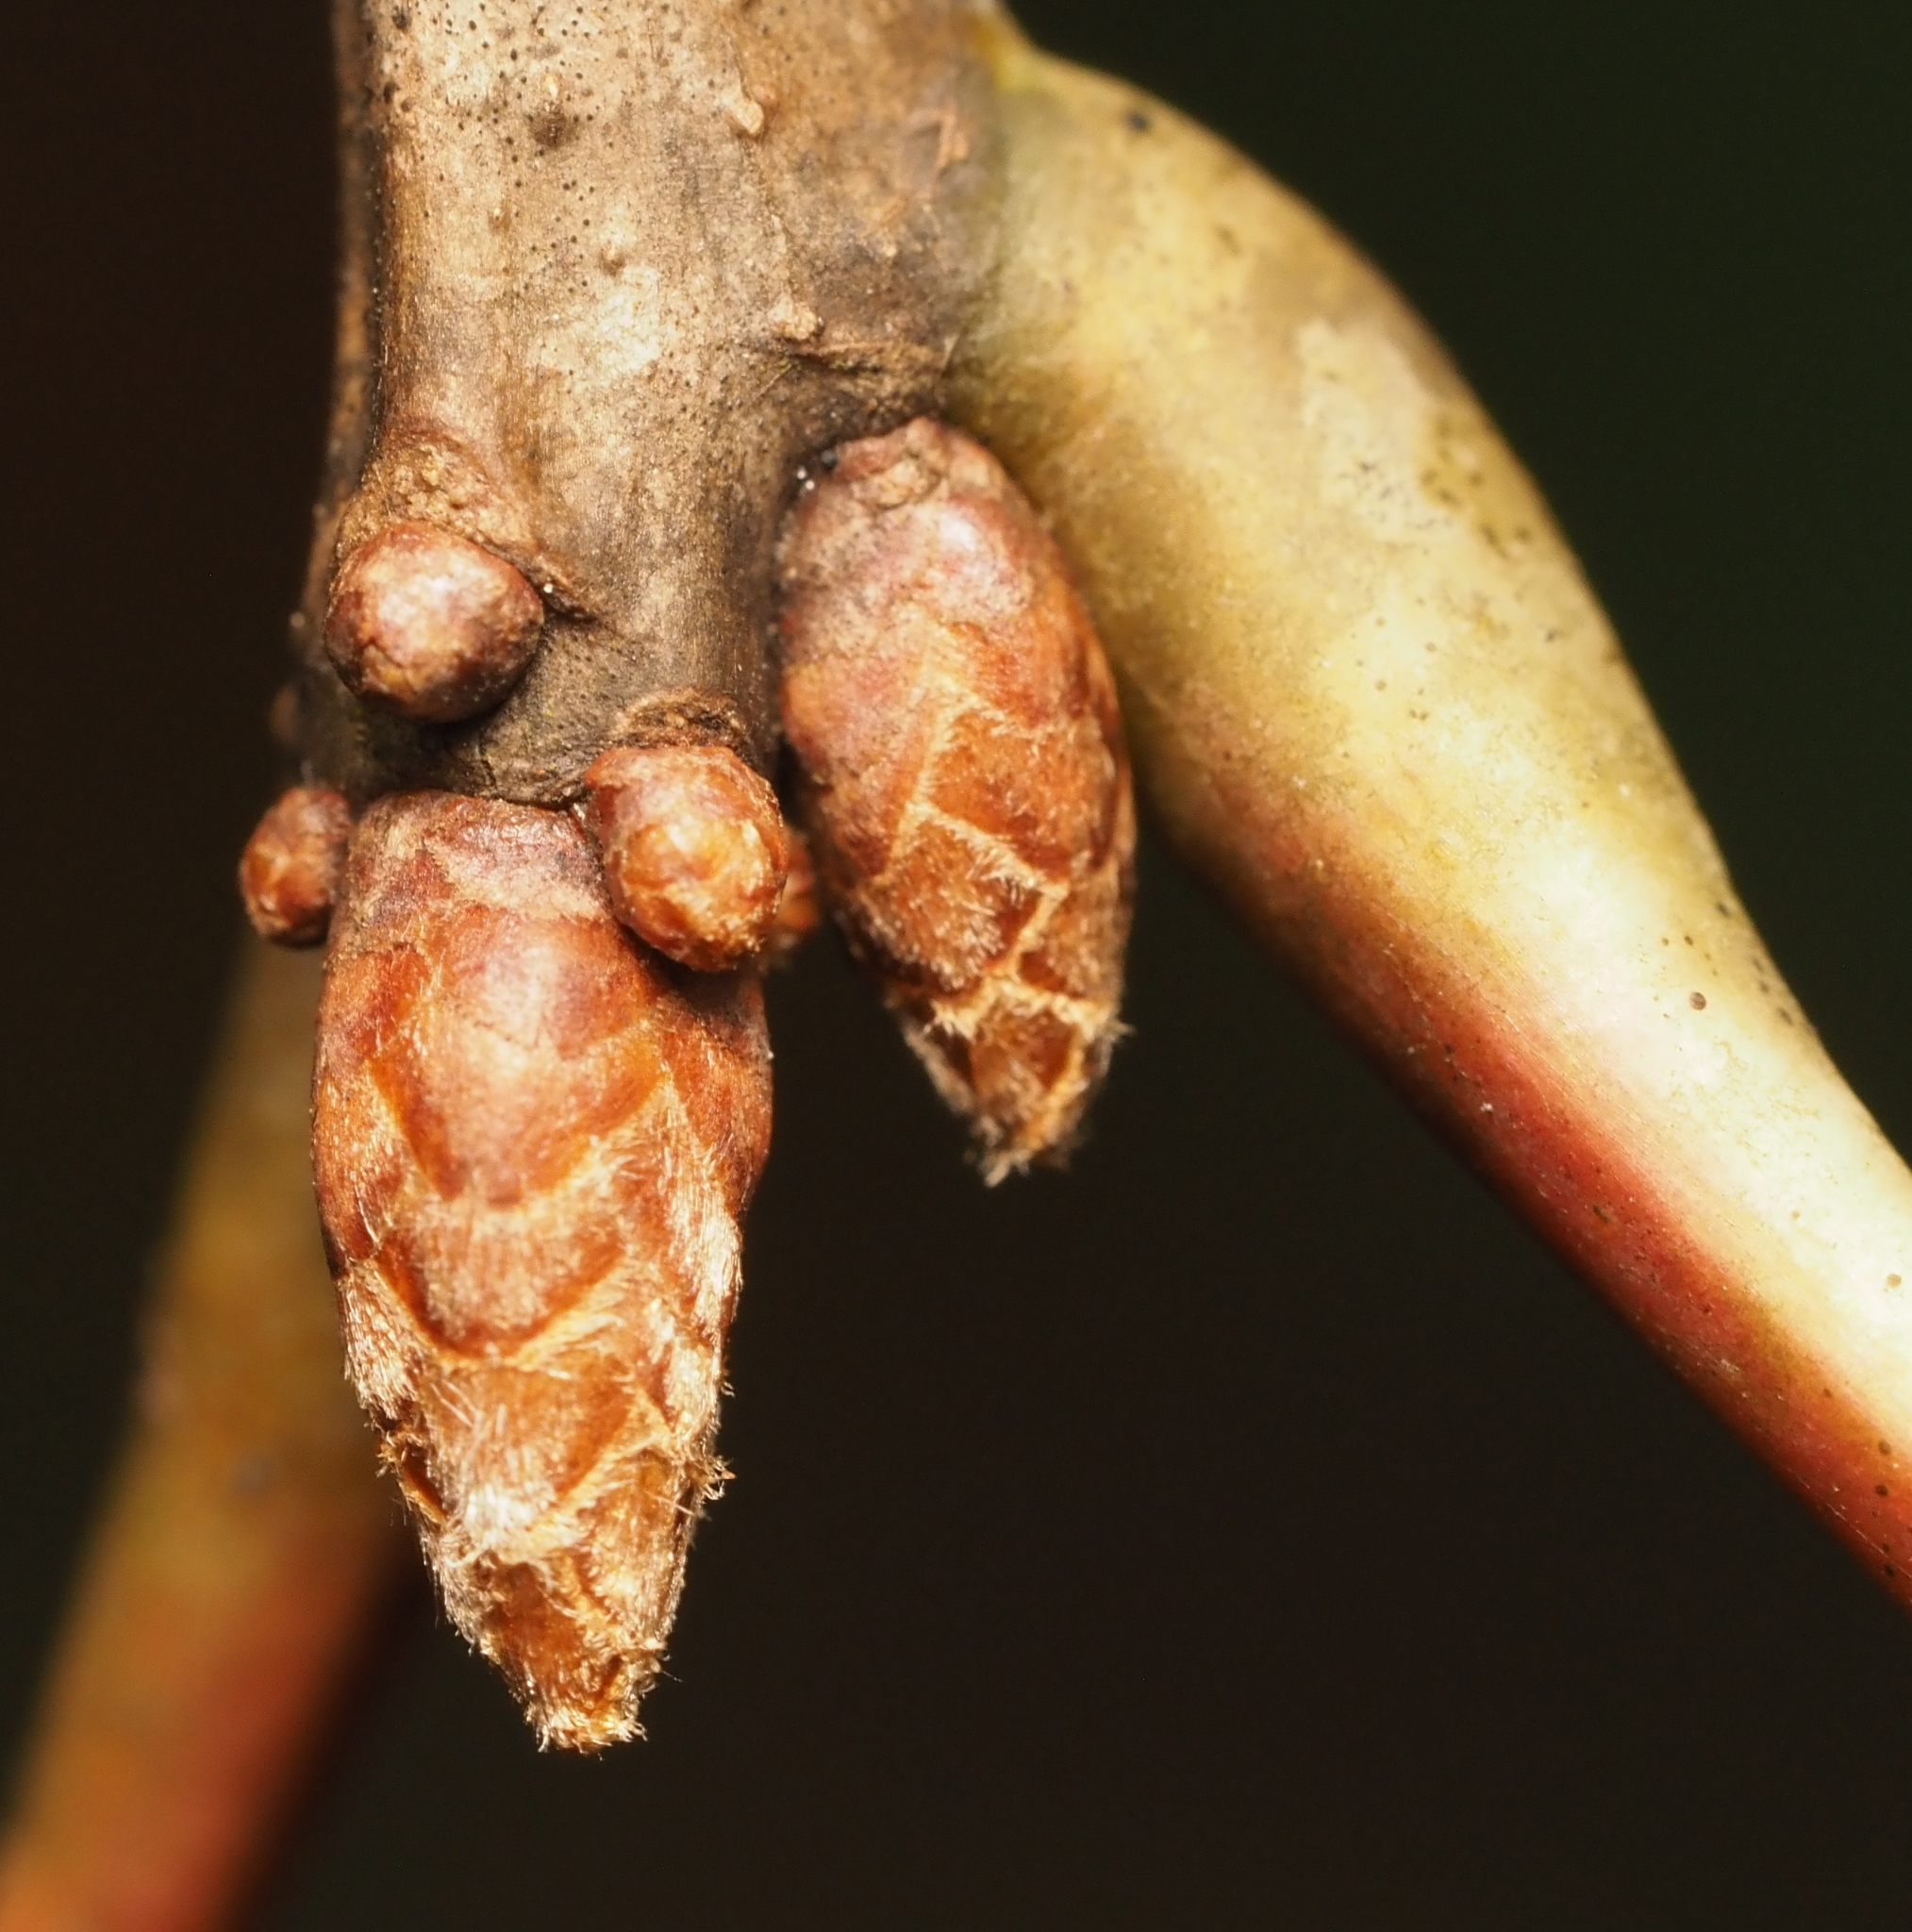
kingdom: Plantae
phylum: Tracheophyta
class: Magnoliopsida
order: Fagales
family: Fagaceae
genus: Quercus
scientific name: Quercus velutina
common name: Black oak
